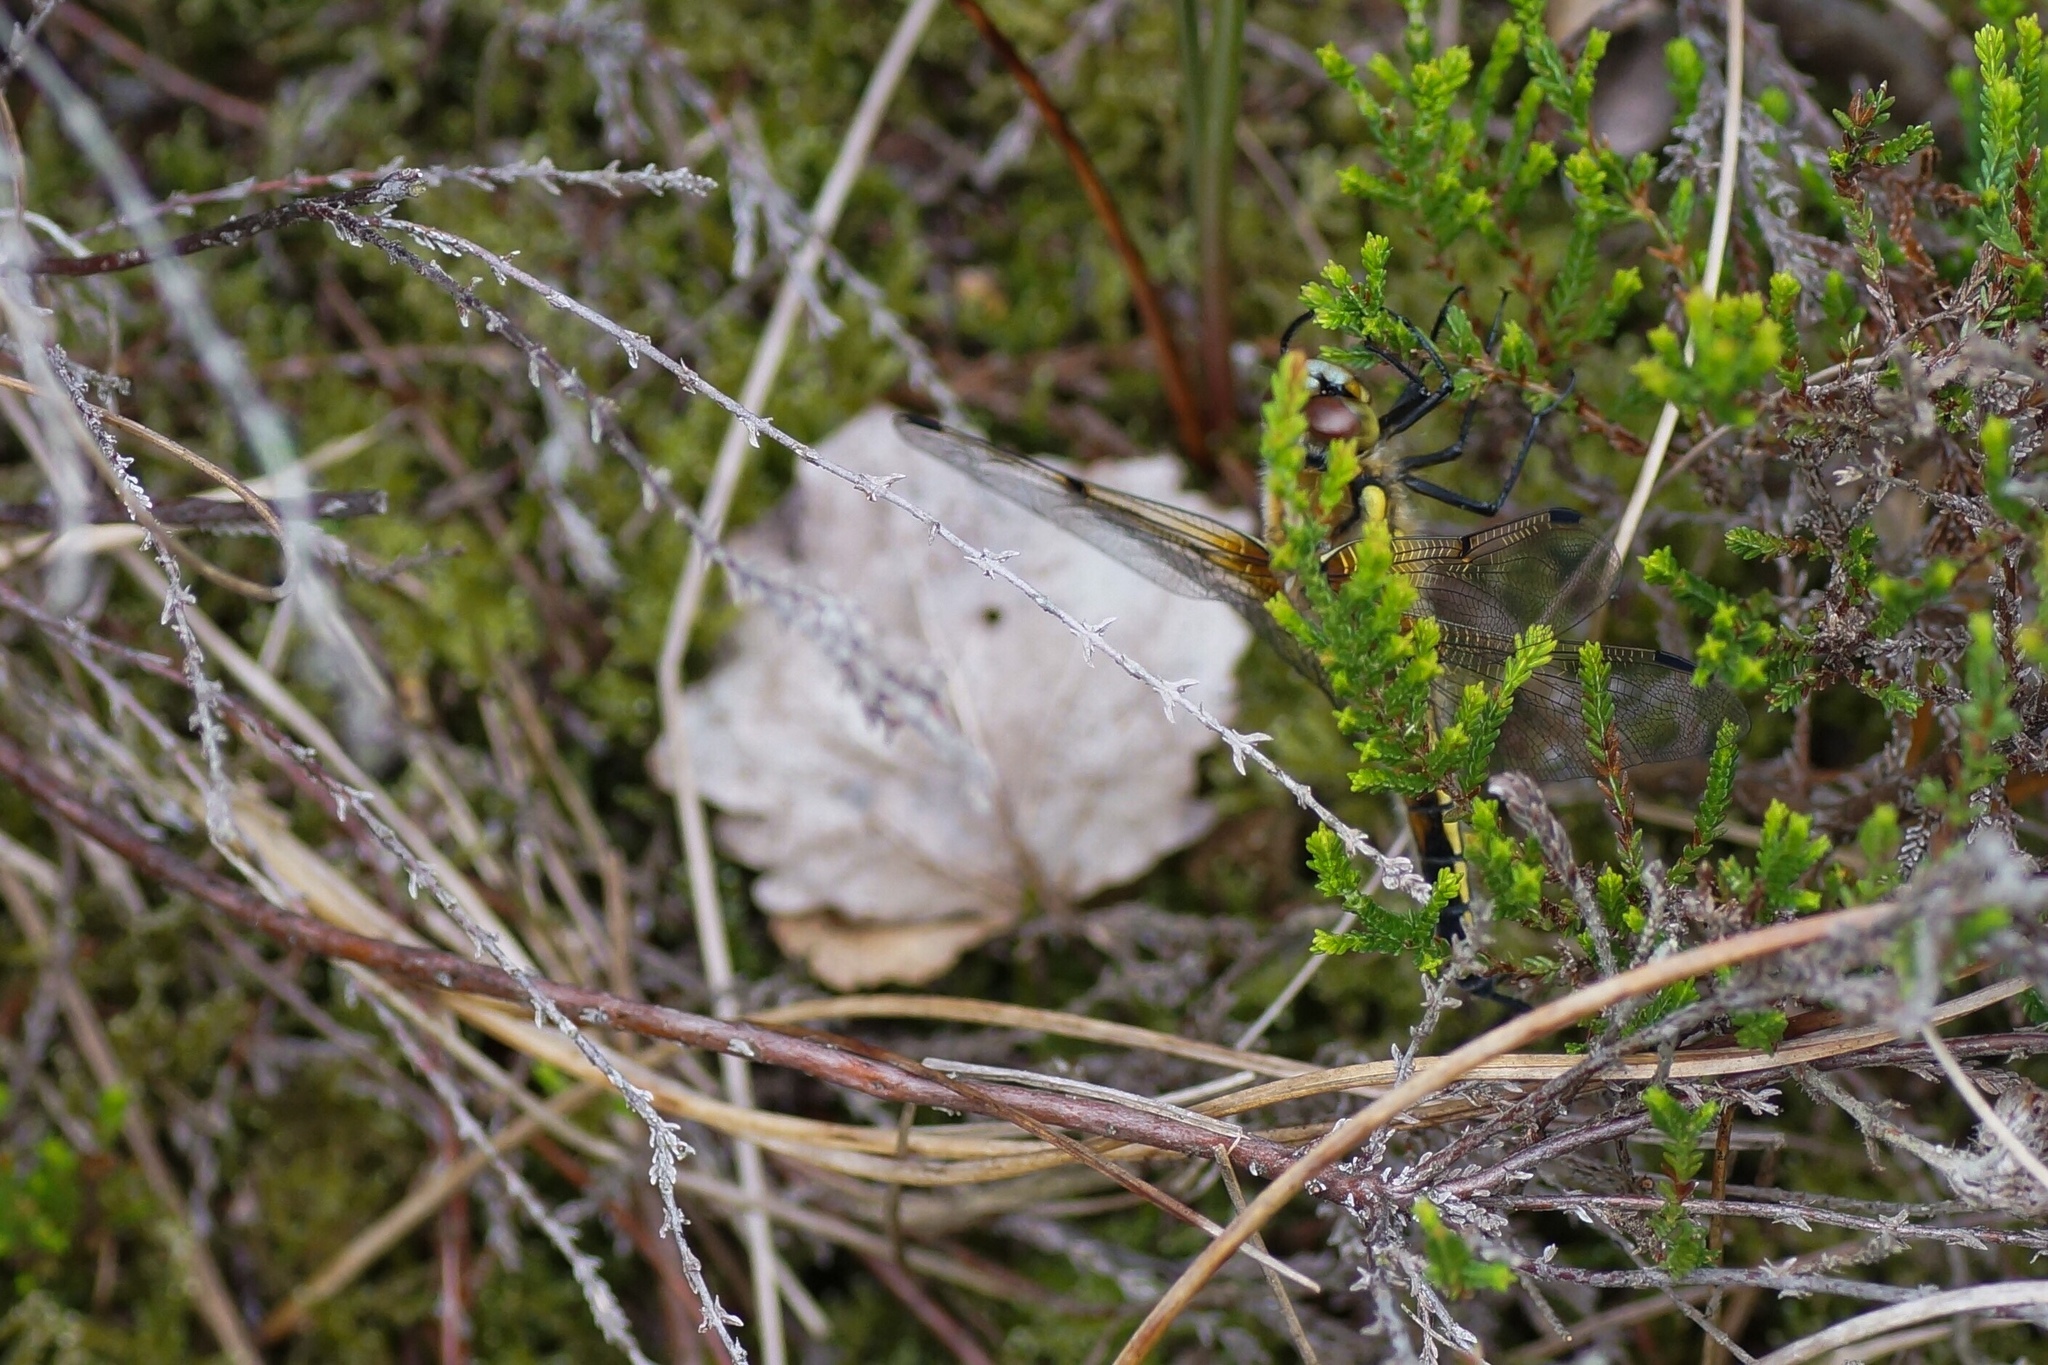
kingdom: Animalia
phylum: Arthropoda
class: Insecta
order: Odonata
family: Libellulidae
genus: Libellula
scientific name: Libellula quadrimaculata
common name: Four-spotted chaser
